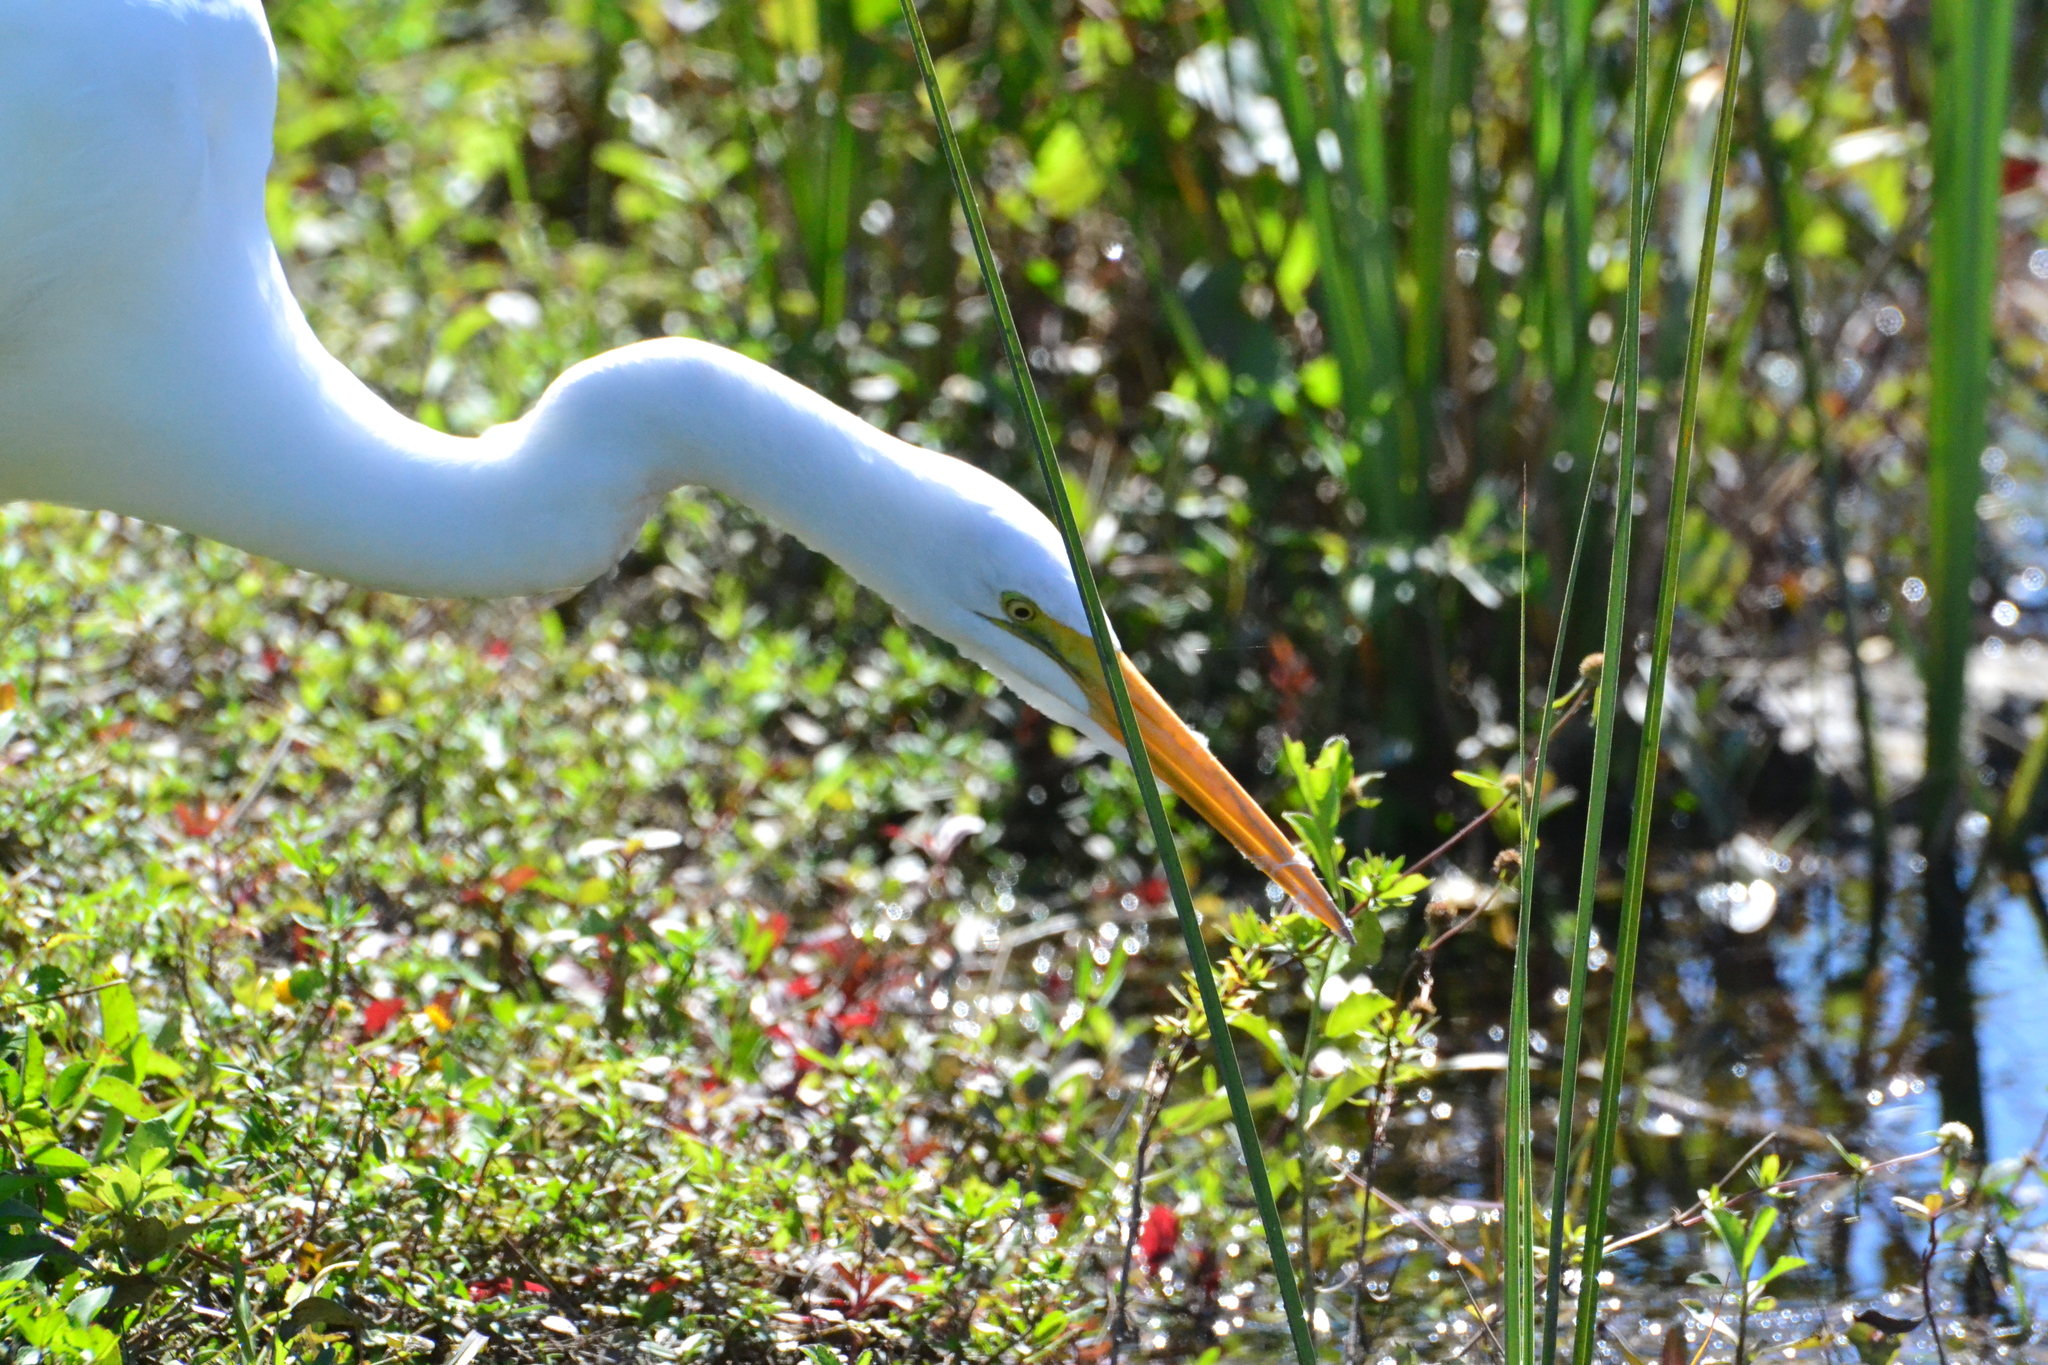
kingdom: Animalia
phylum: Chordata
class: Aves
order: Pelecaniformes
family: Ardeidae
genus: Ardea
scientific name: Ardea alba
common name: Great egret
